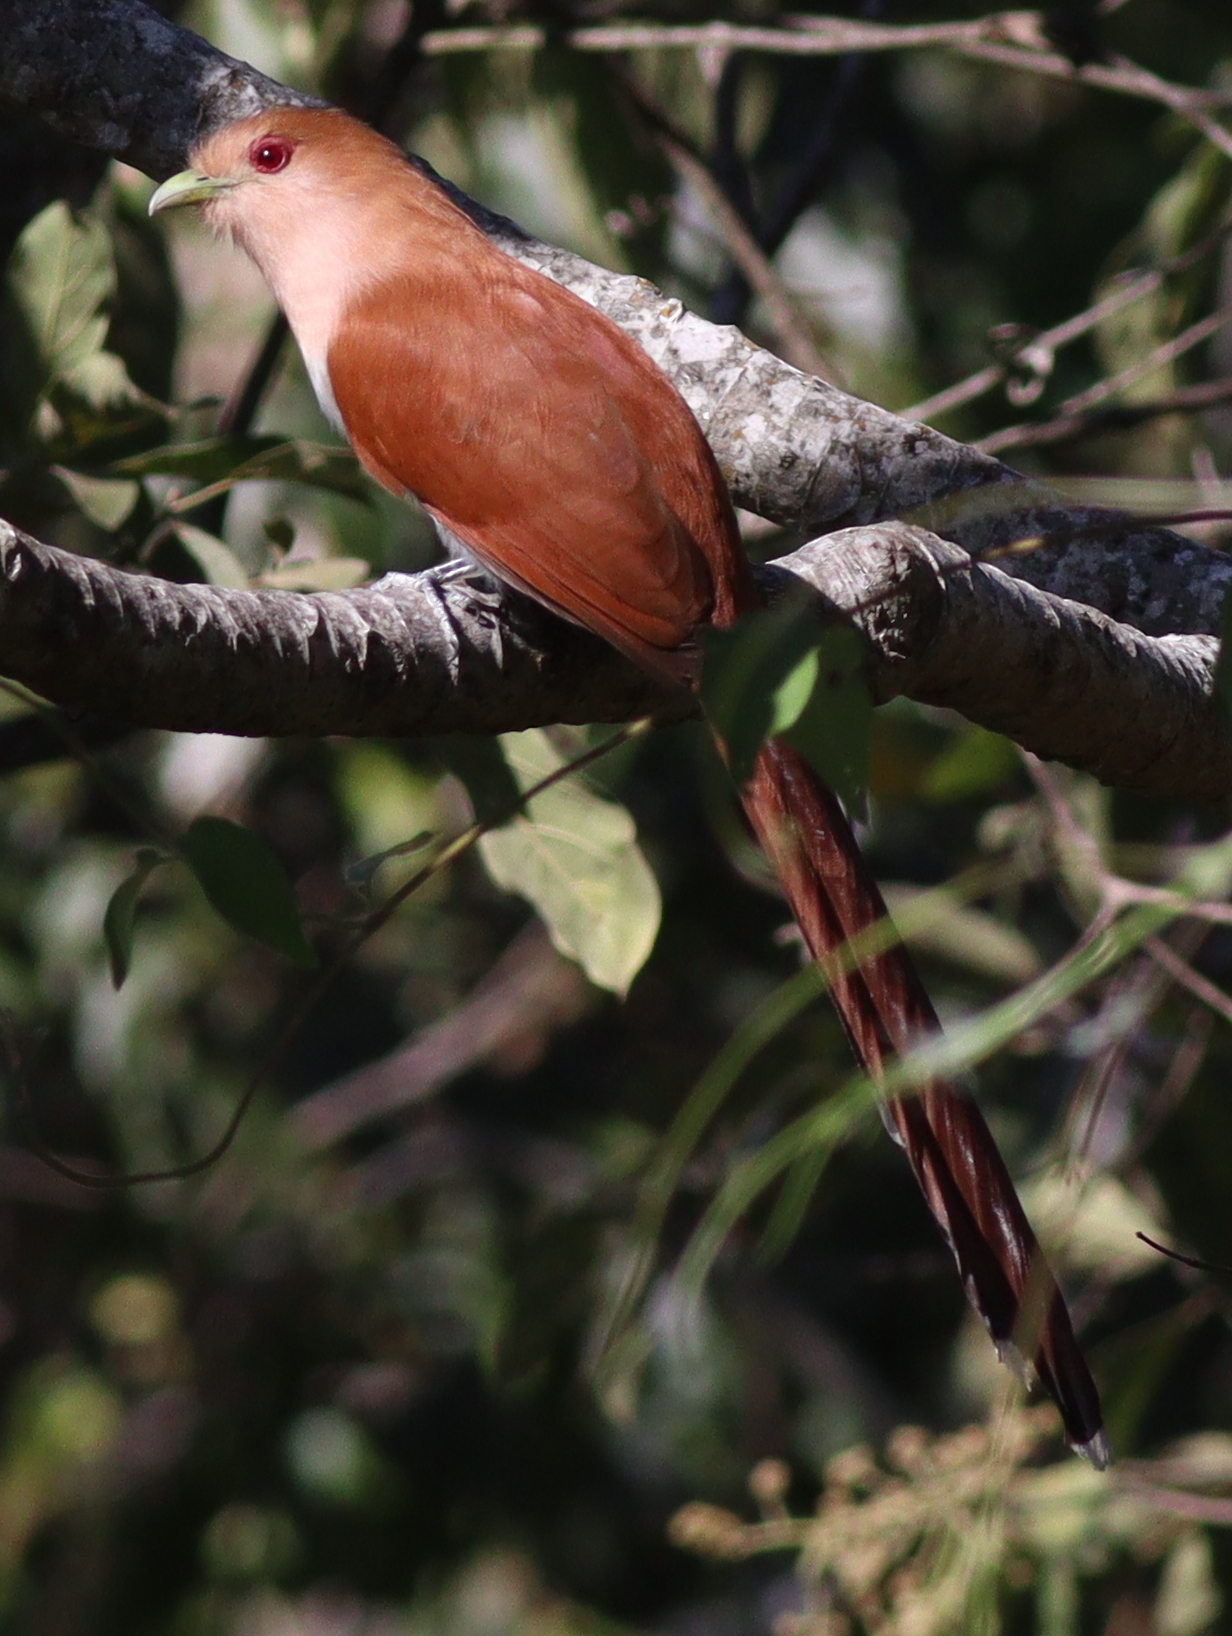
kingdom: Animalia
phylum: Chordata
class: Aves
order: Cuculiformes
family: Cuculidae
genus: Piaya
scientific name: Piaya cayana
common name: Squirrel cuckoo
